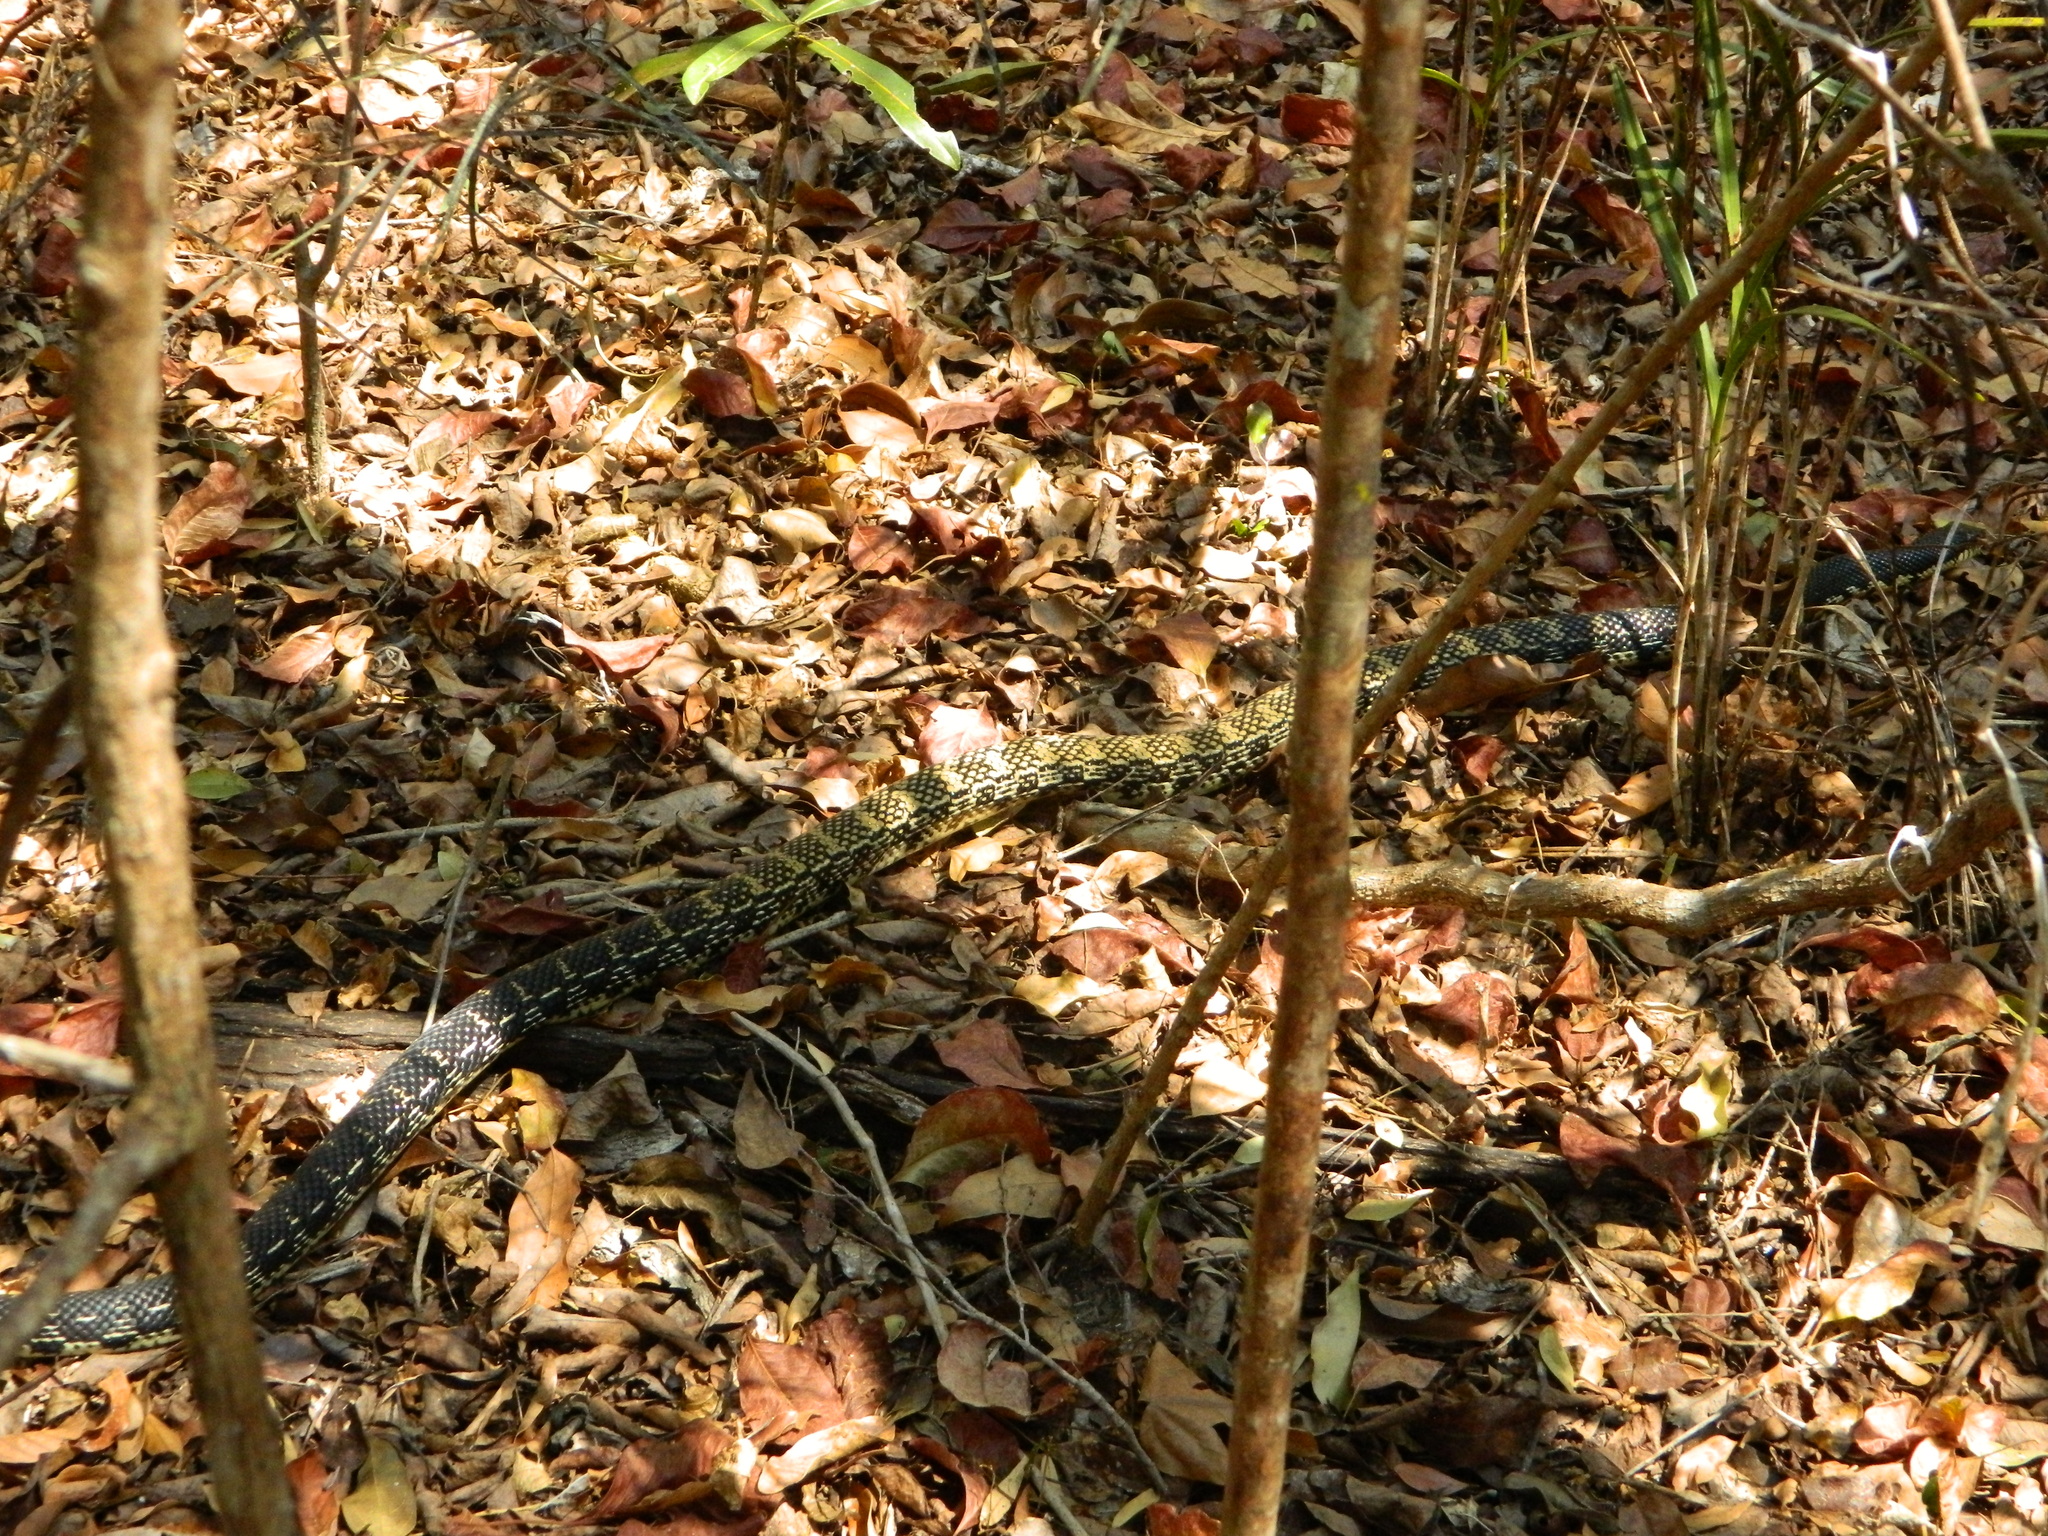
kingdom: Animalia
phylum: Chordata
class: Squamata
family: Pseudoxyrhophiidae
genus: Leioheterodon
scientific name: Leioheterodon madagascariensis
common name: Malagasy giant hognose snake
